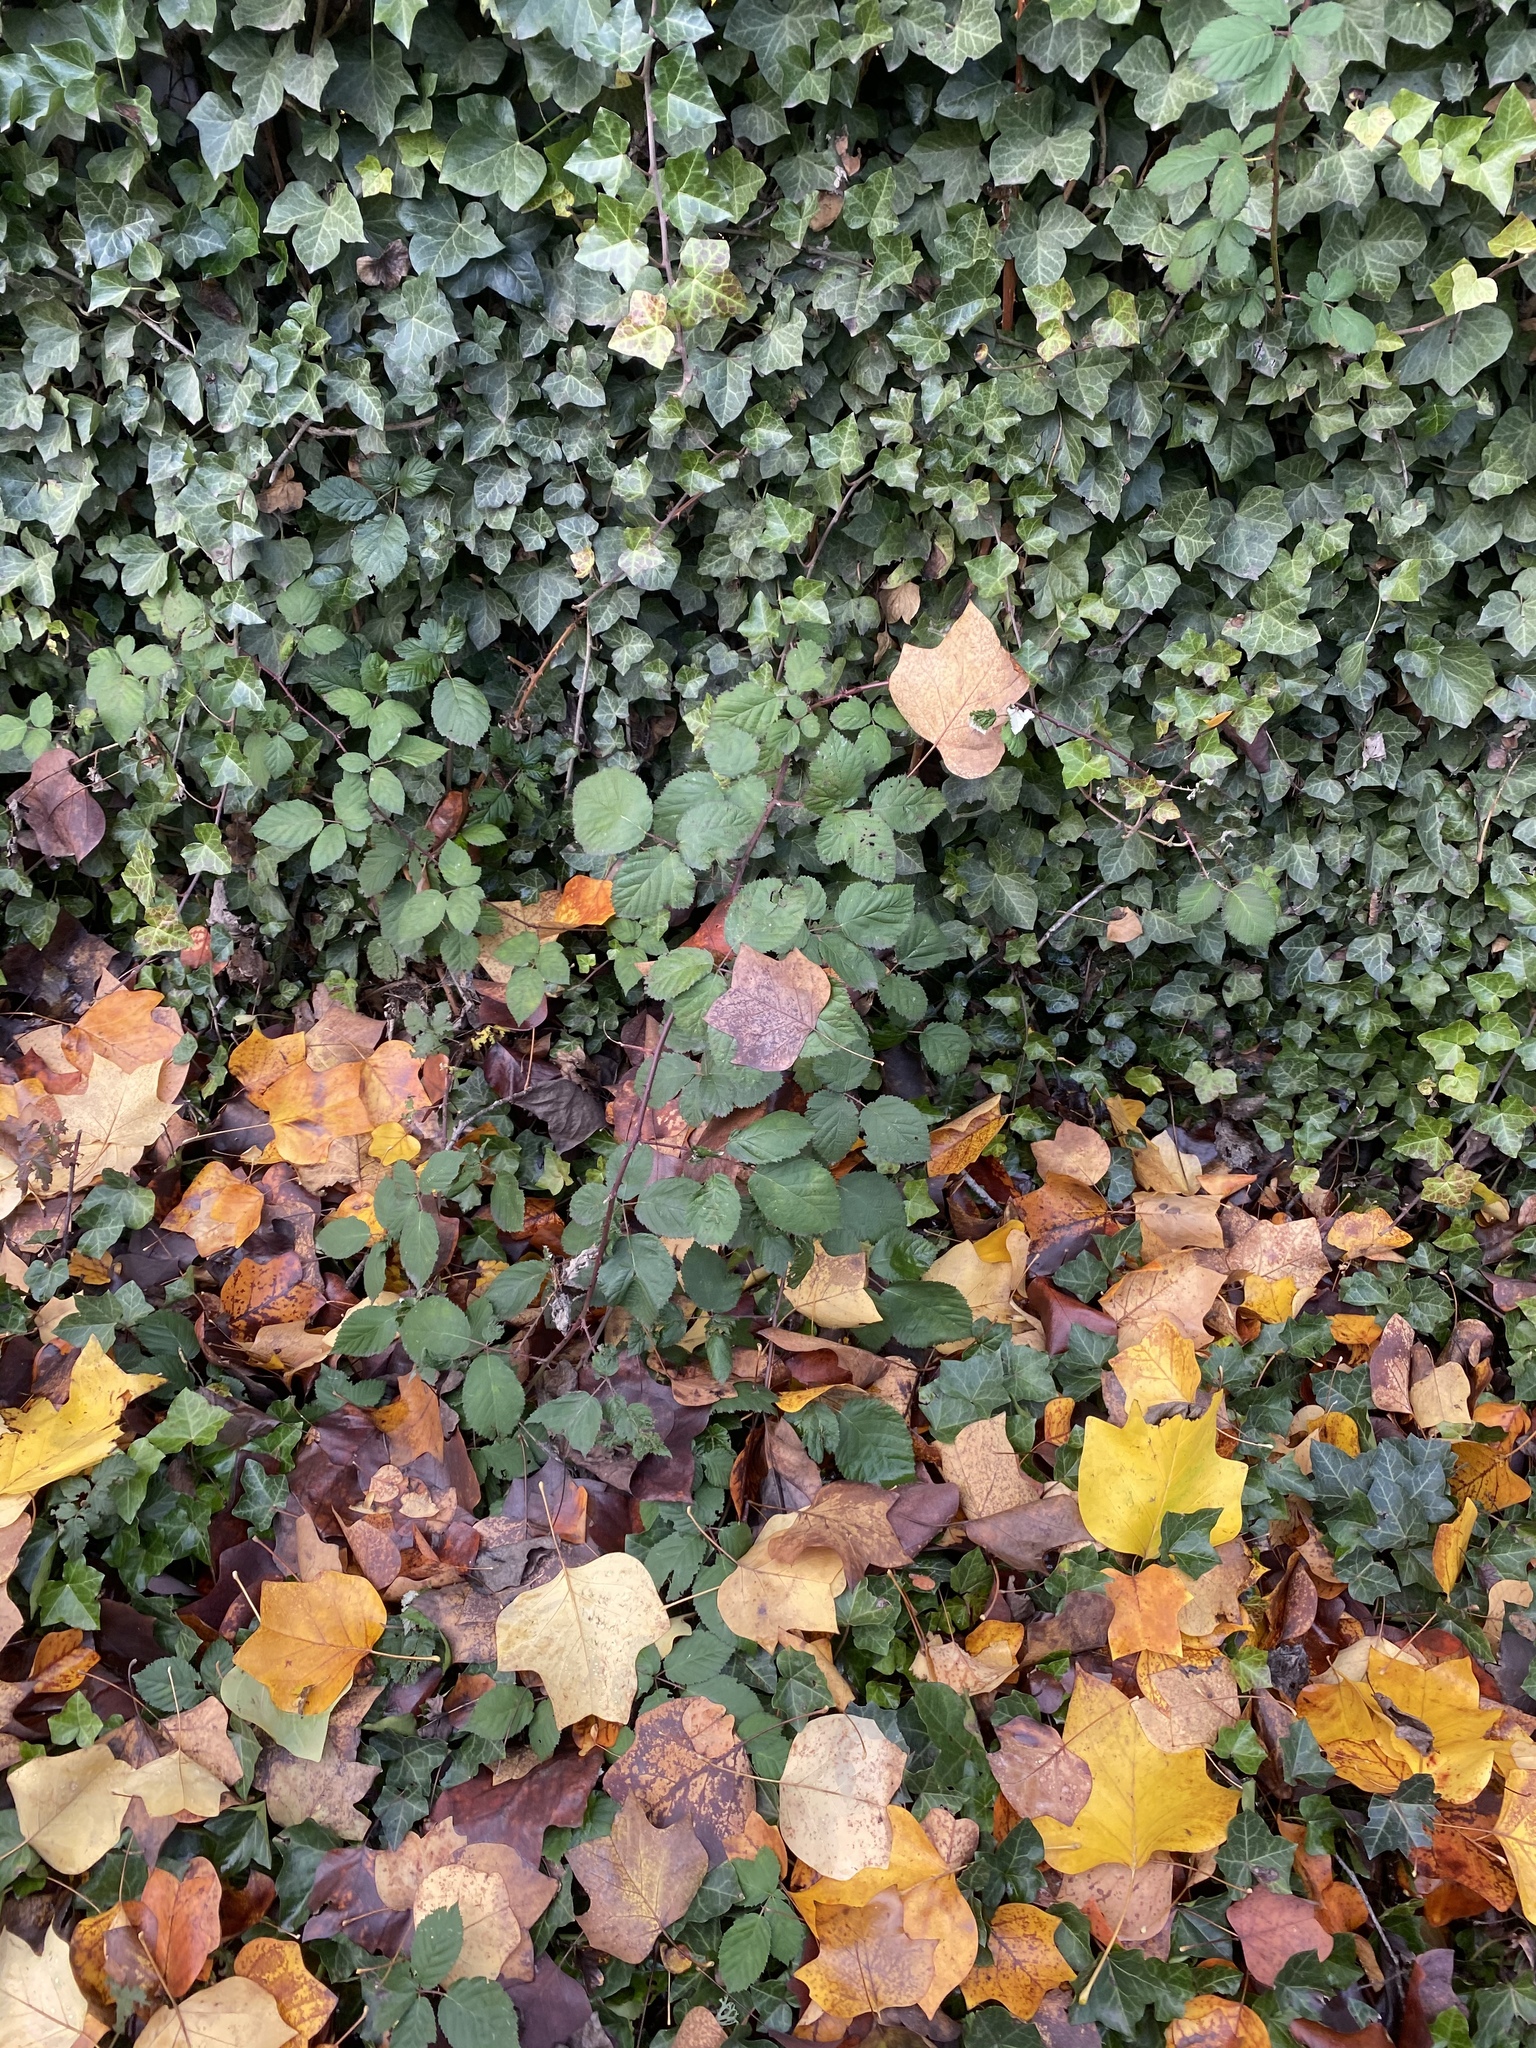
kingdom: Plantae
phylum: Tracheophyta
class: Magnoliopsida
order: Apiales
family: Araliaceae
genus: Hedera
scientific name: Hedera helix
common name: Ivy
